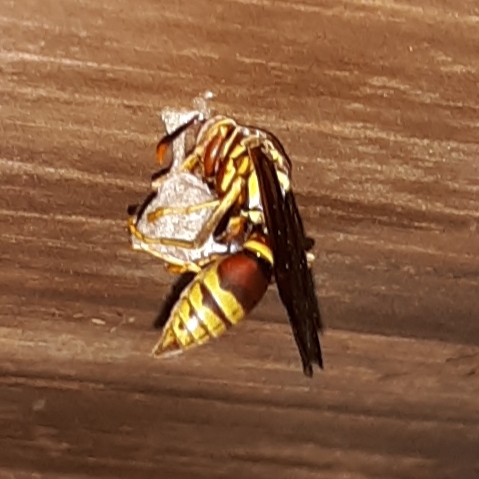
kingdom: Animalia
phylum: Arthropoda
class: Insecta
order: Hymenoptera
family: Eumenidae
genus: Polistes
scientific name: Polistes exclamans
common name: Paper wasp
